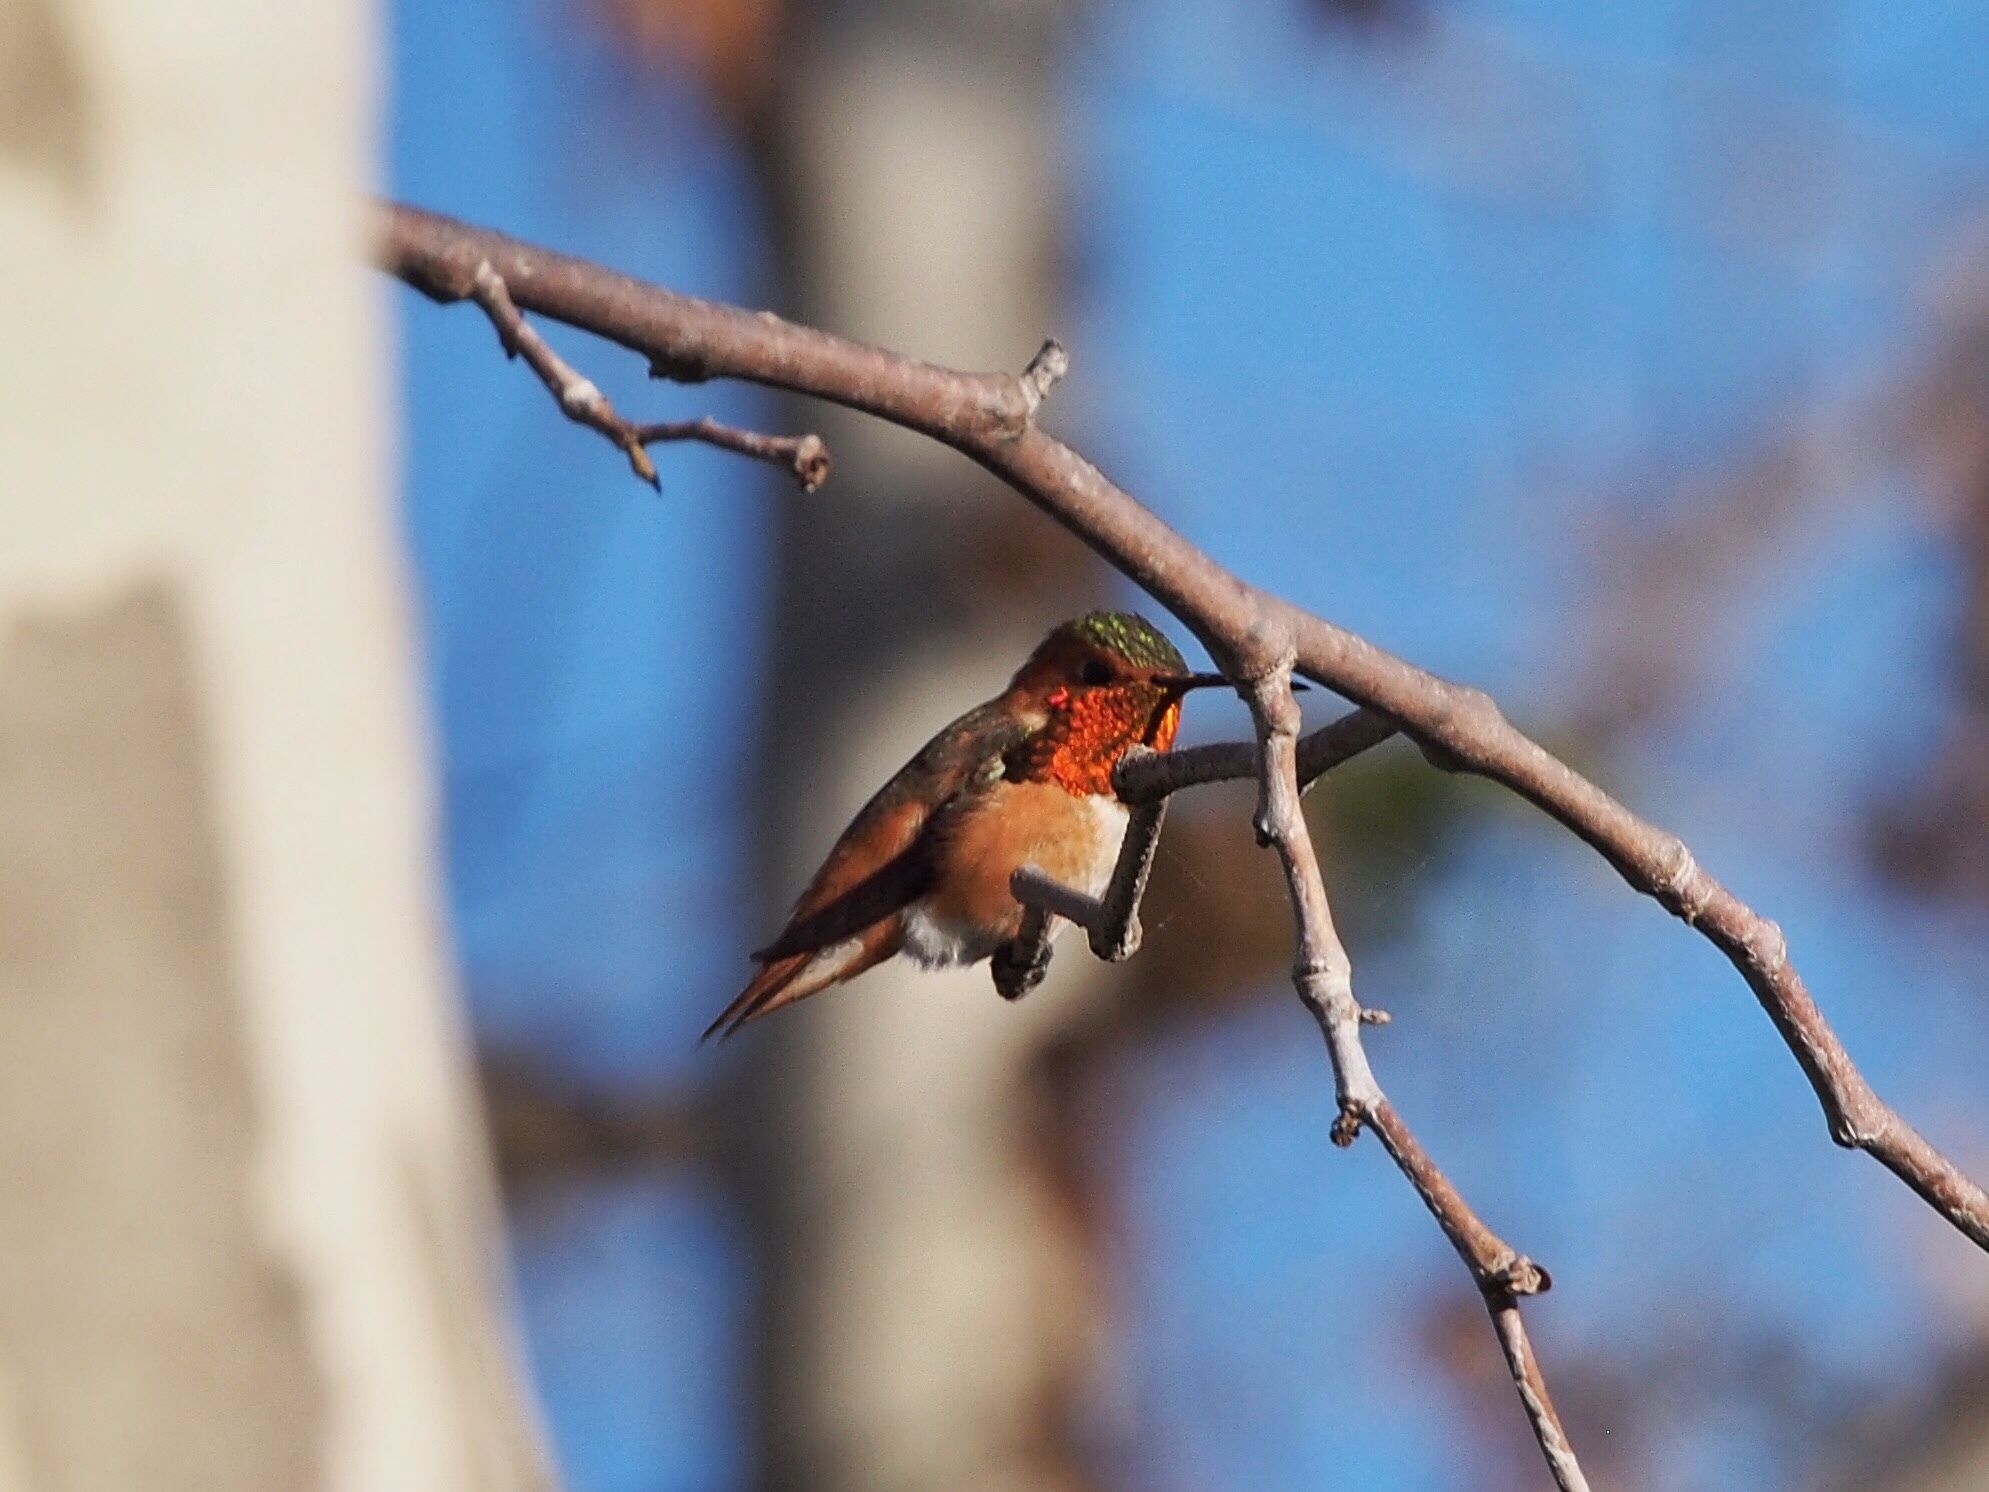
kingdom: Animalia
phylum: Chordata
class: Aves
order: Apodiformes
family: Trochilidae
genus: Selasphorus
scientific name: Selasphorus sasin
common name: Allen's hummingbird
